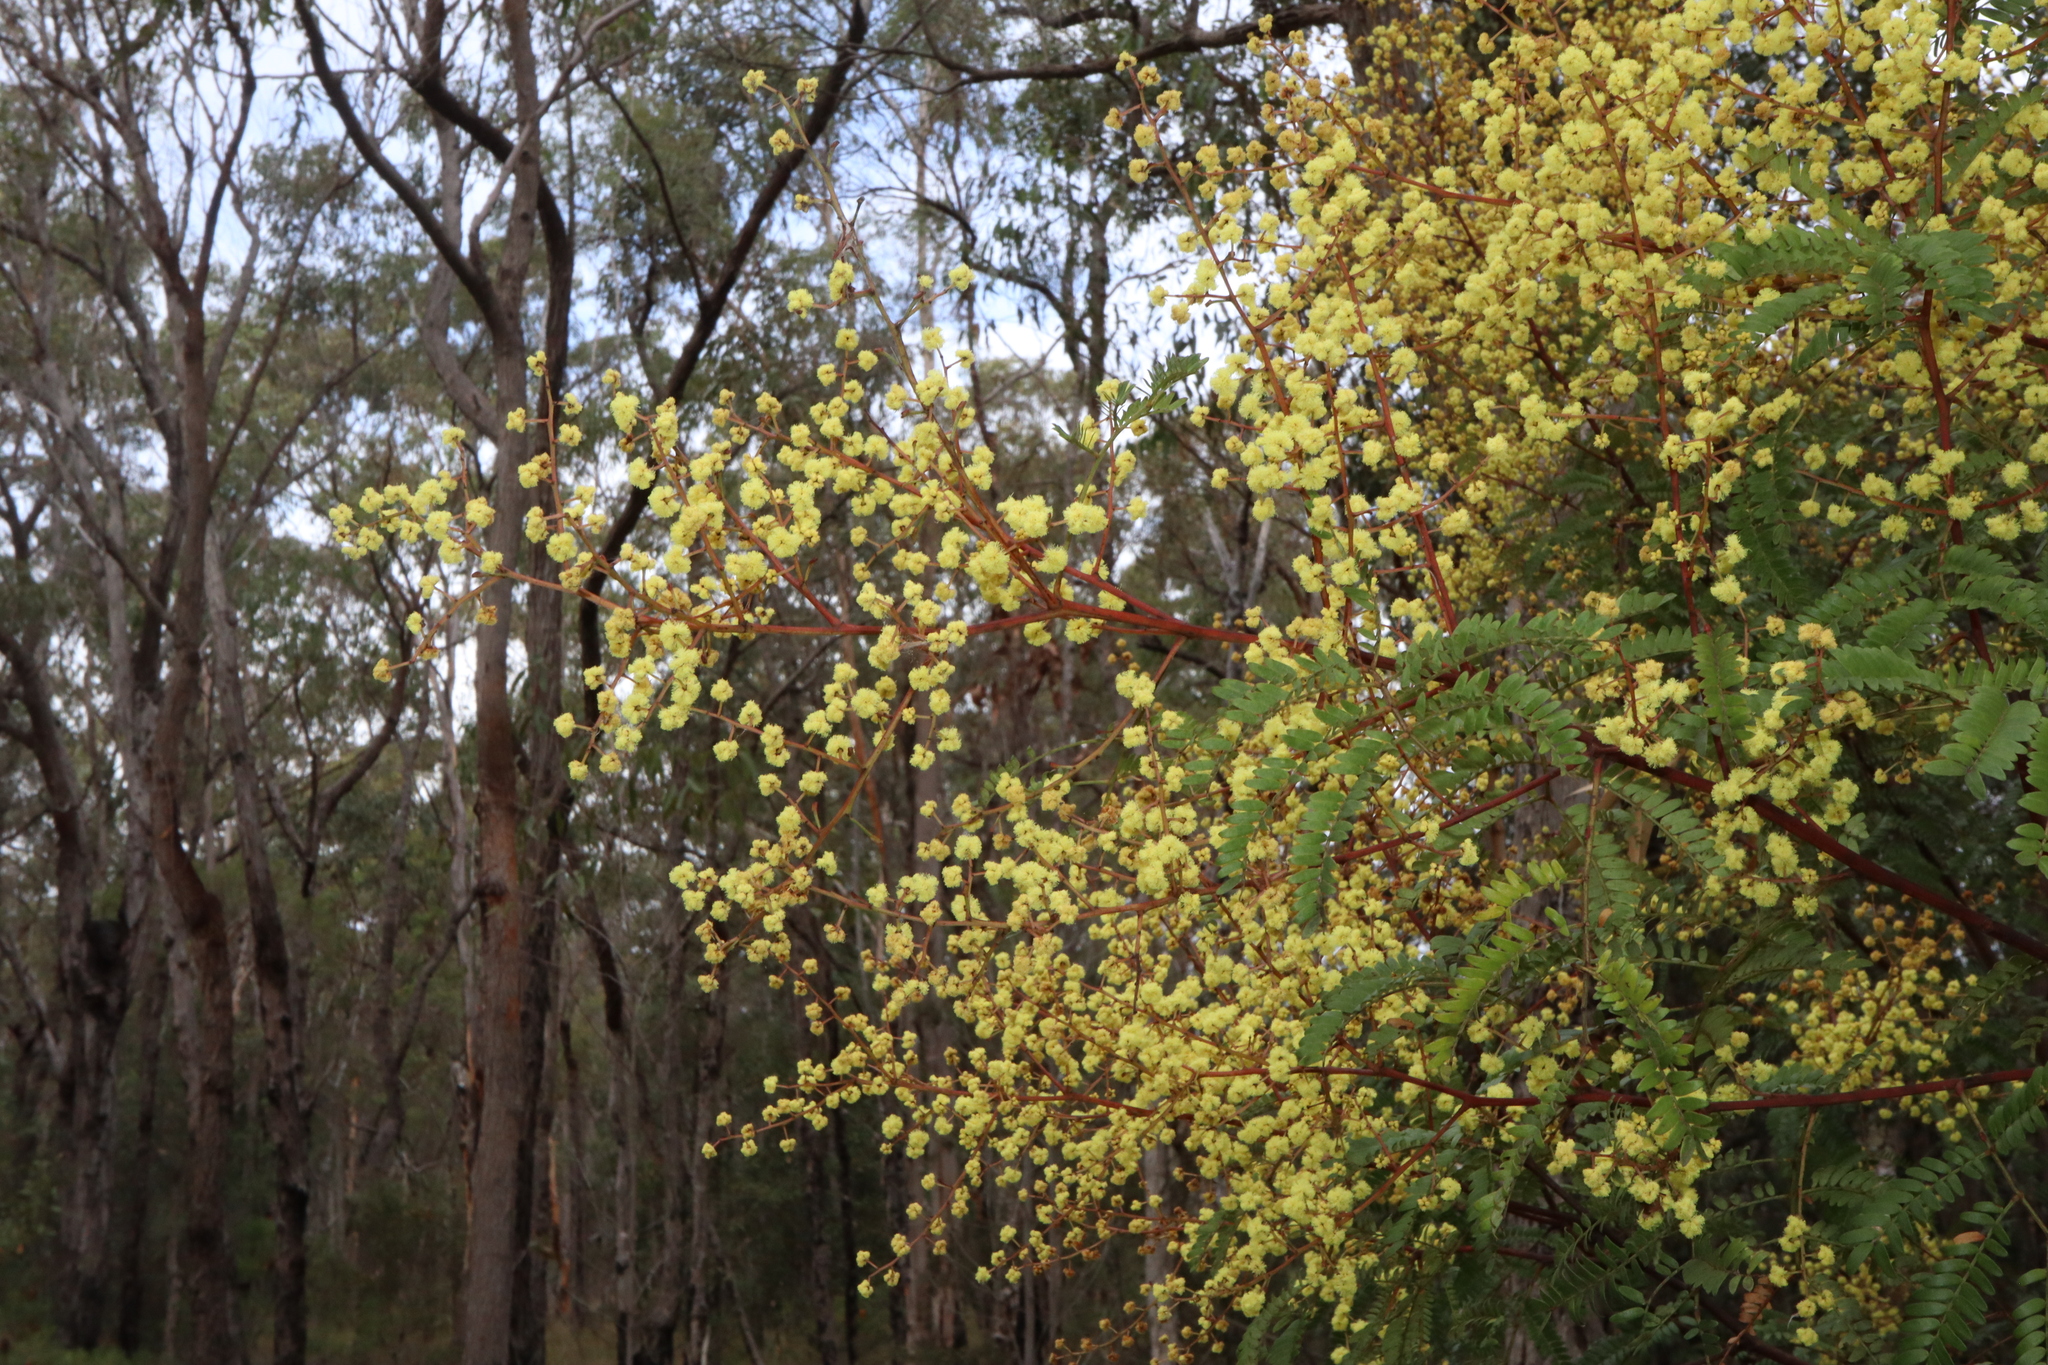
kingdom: Plantae
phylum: Tracheophyta
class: Magnoliopsida
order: Fabales
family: Fabaceae
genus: Acacia
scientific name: Acacia terminalis
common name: Cedar wattle
